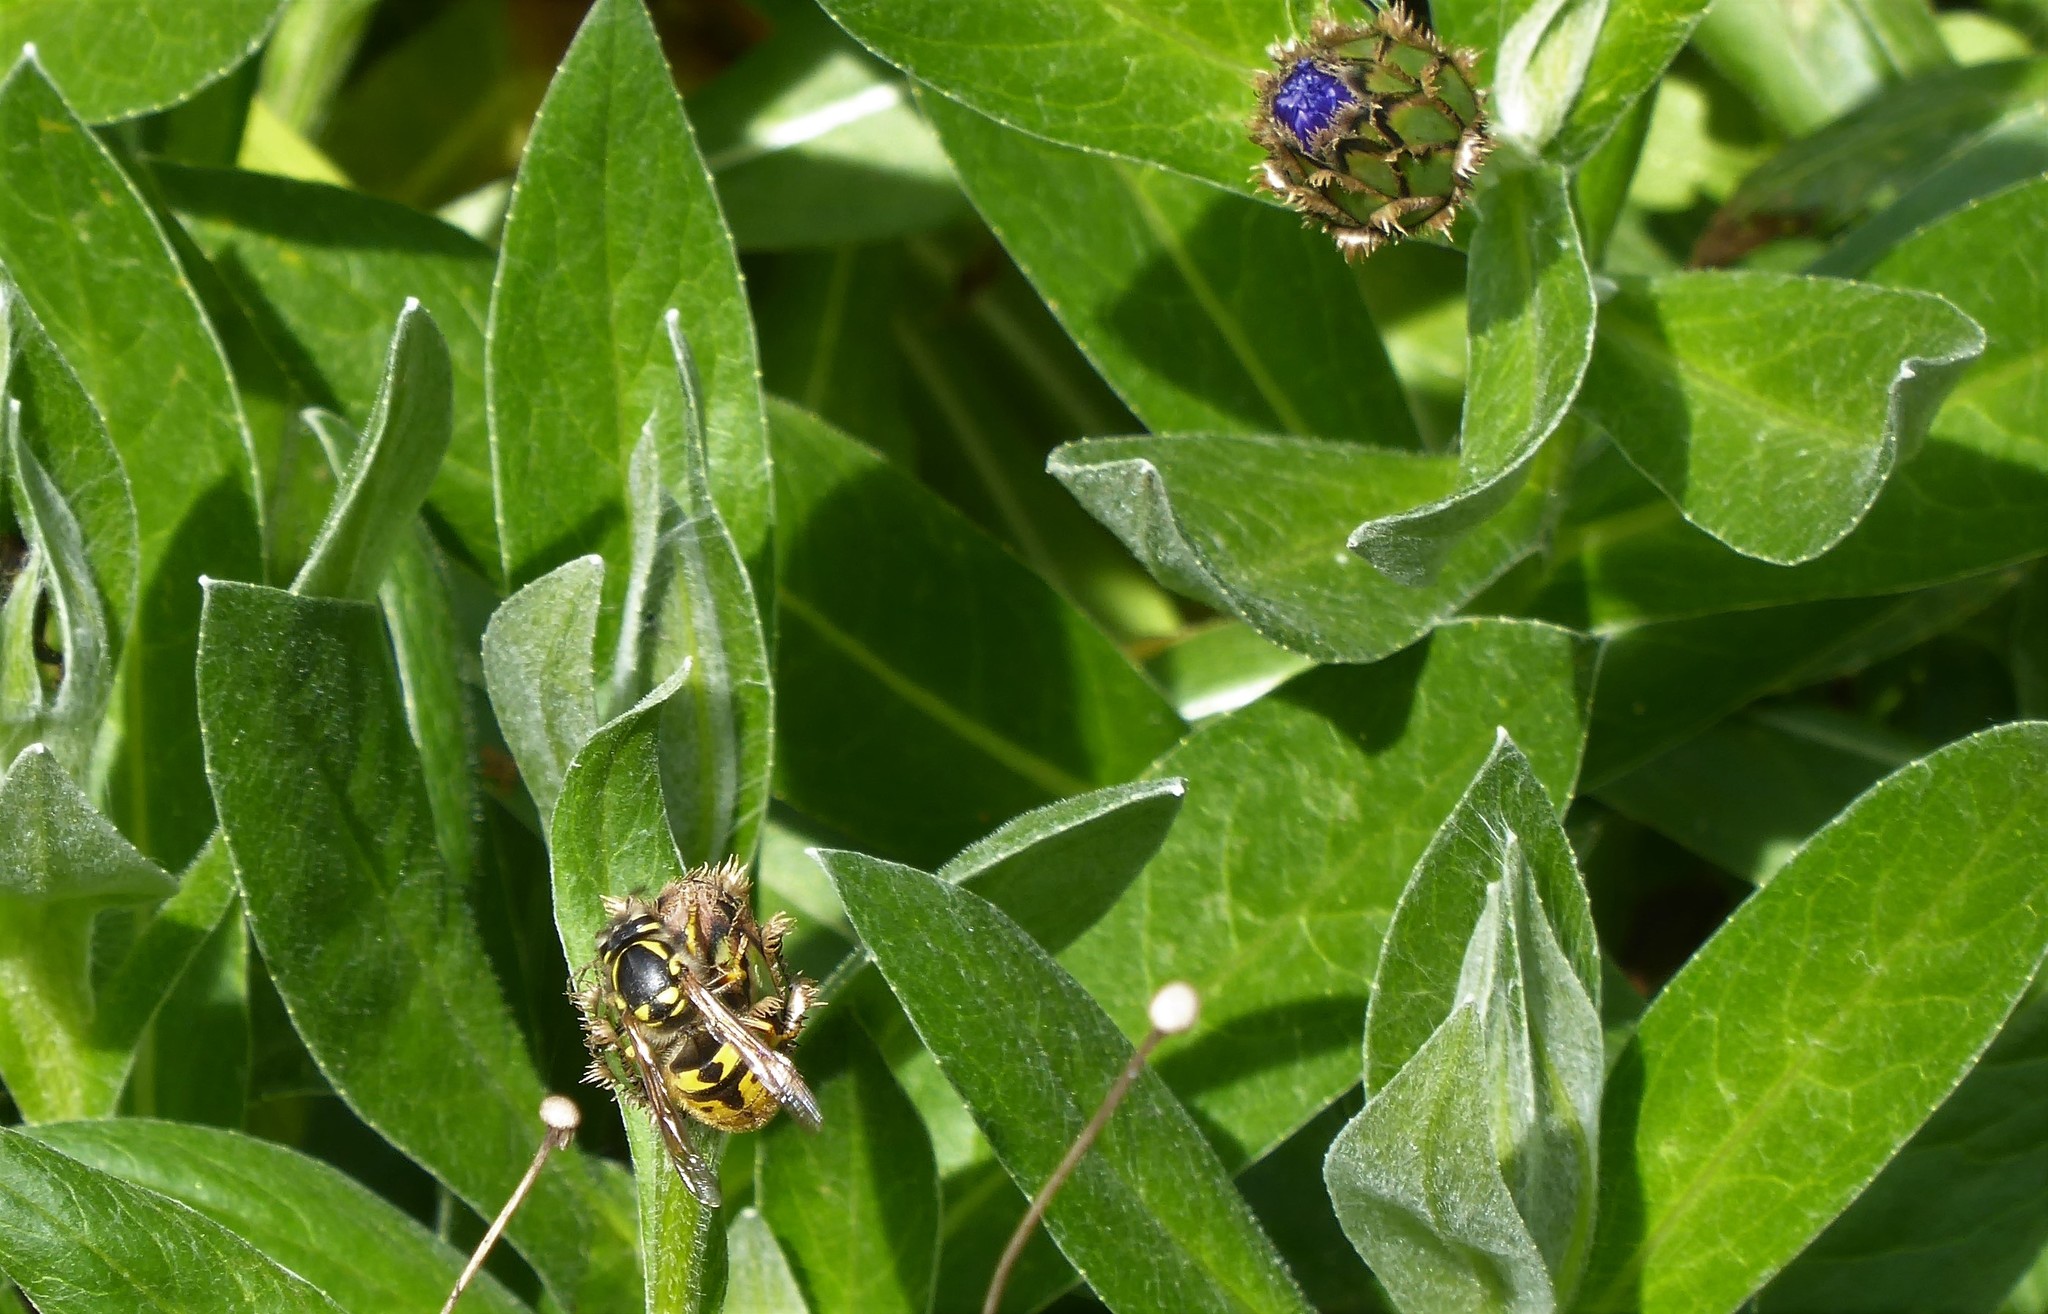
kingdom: Animalia
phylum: Arthropoda
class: Insecta
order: Hymenoptera
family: Vespidae
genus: Vespula
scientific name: Vespula germanica
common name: German wasp
